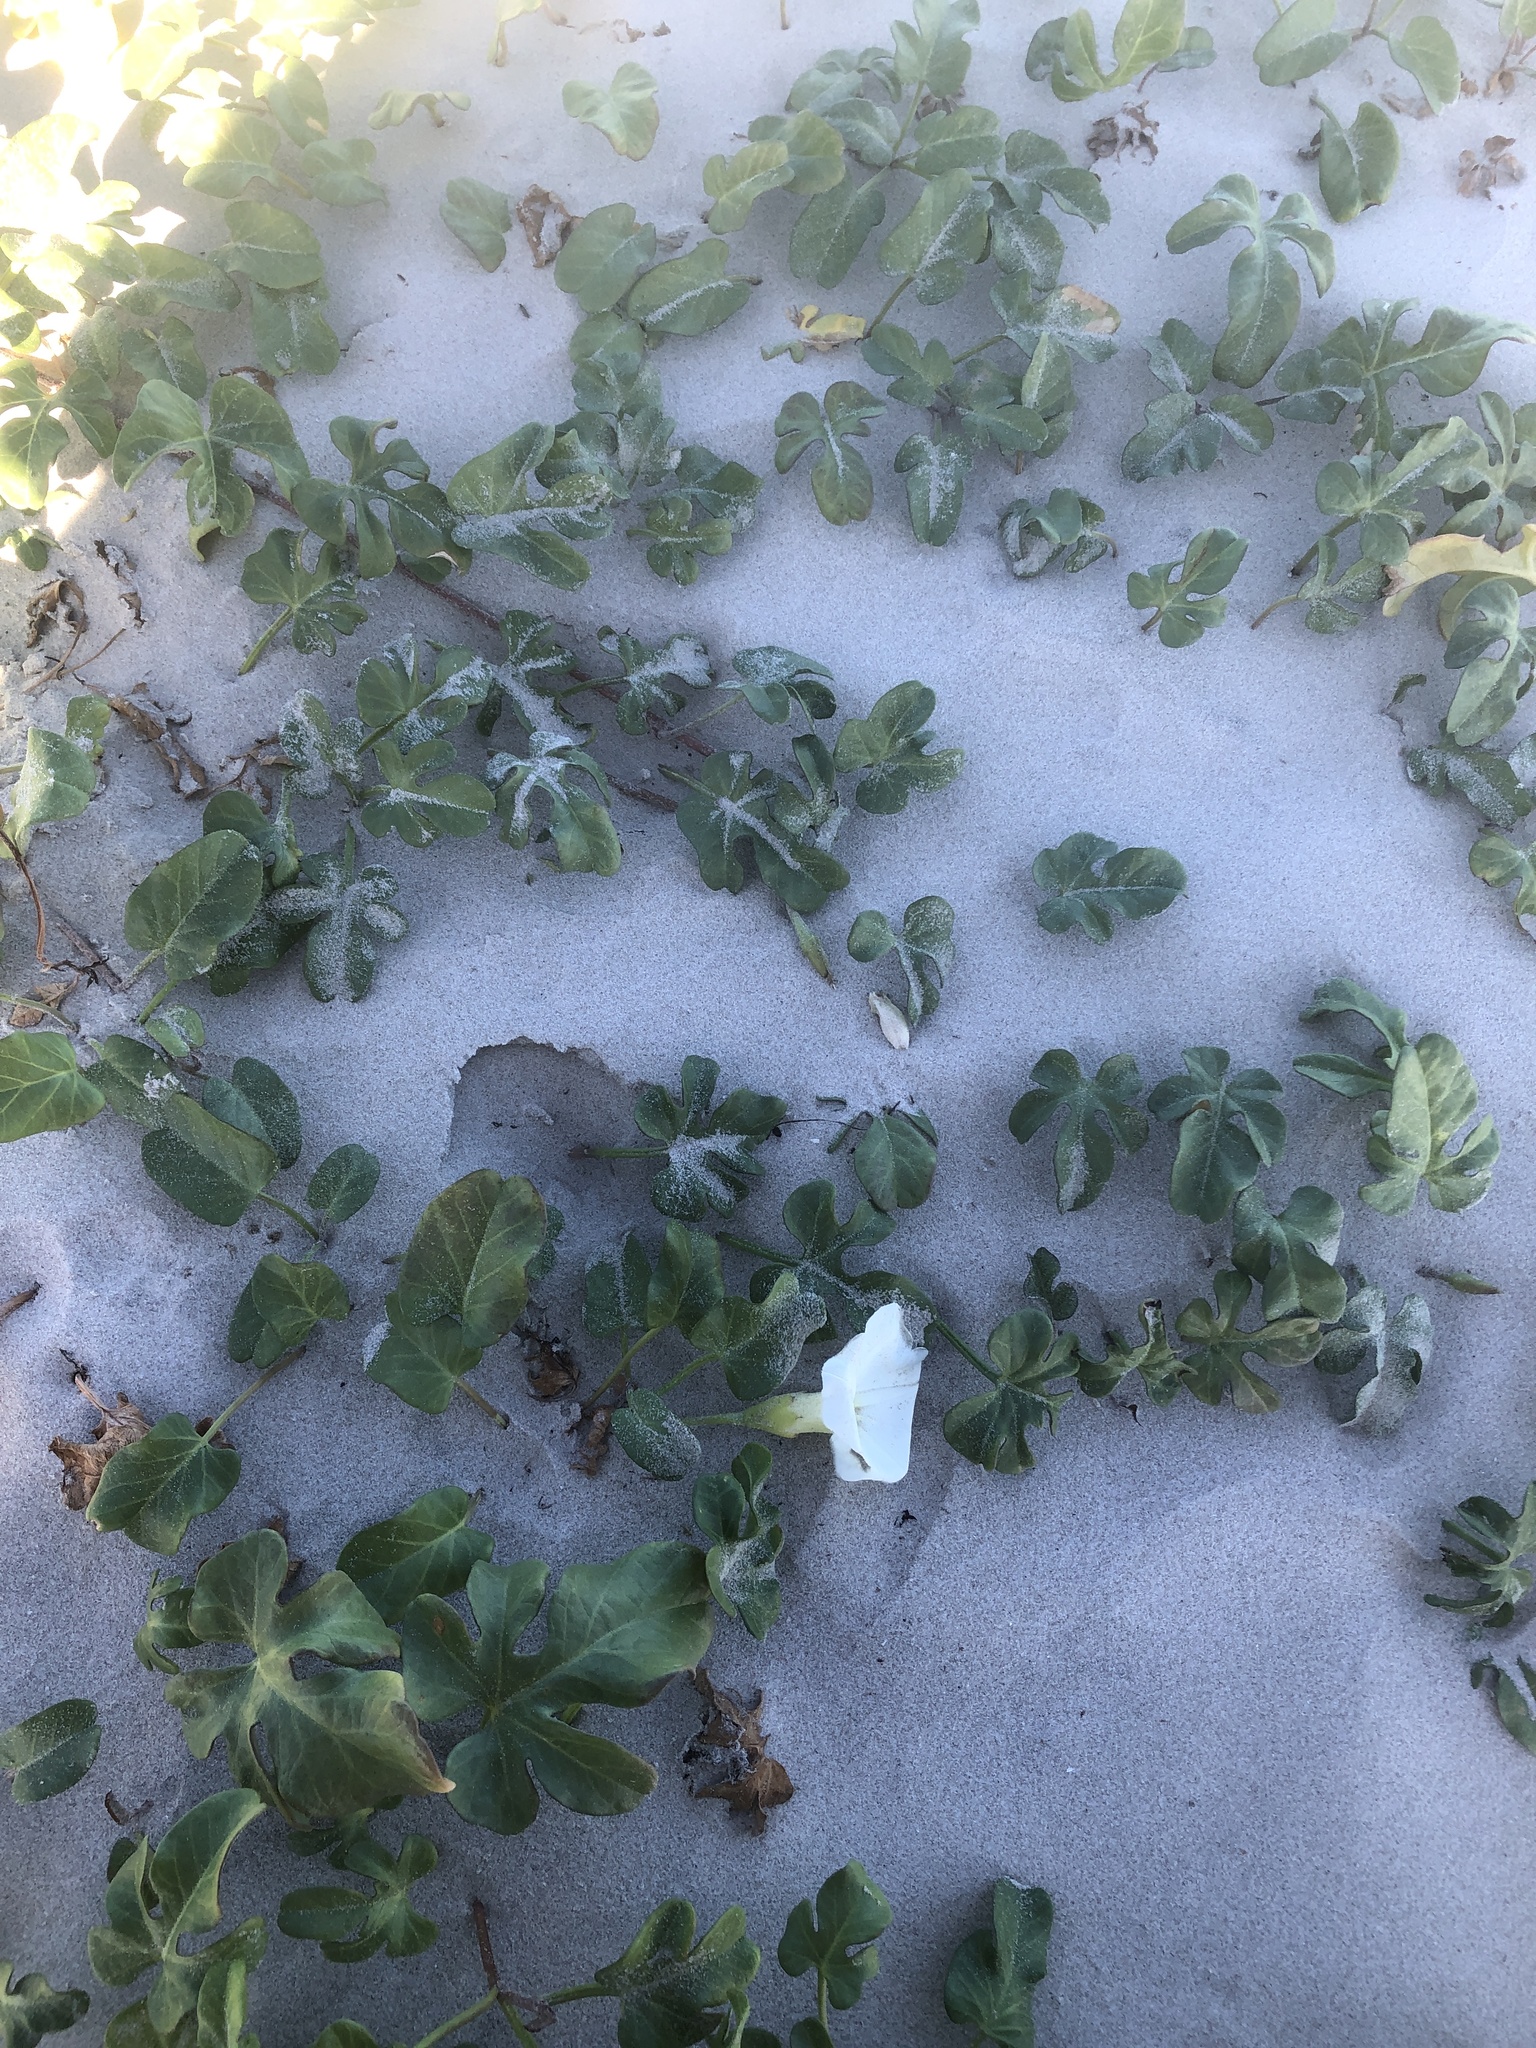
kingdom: Plantae
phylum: Tracheophyta
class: Magnoliopsida
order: Solanales
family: Convolvulaceae
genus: Ipomoea
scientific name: Ipomoea imperati
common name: Fiddle-leaf morning-glory
